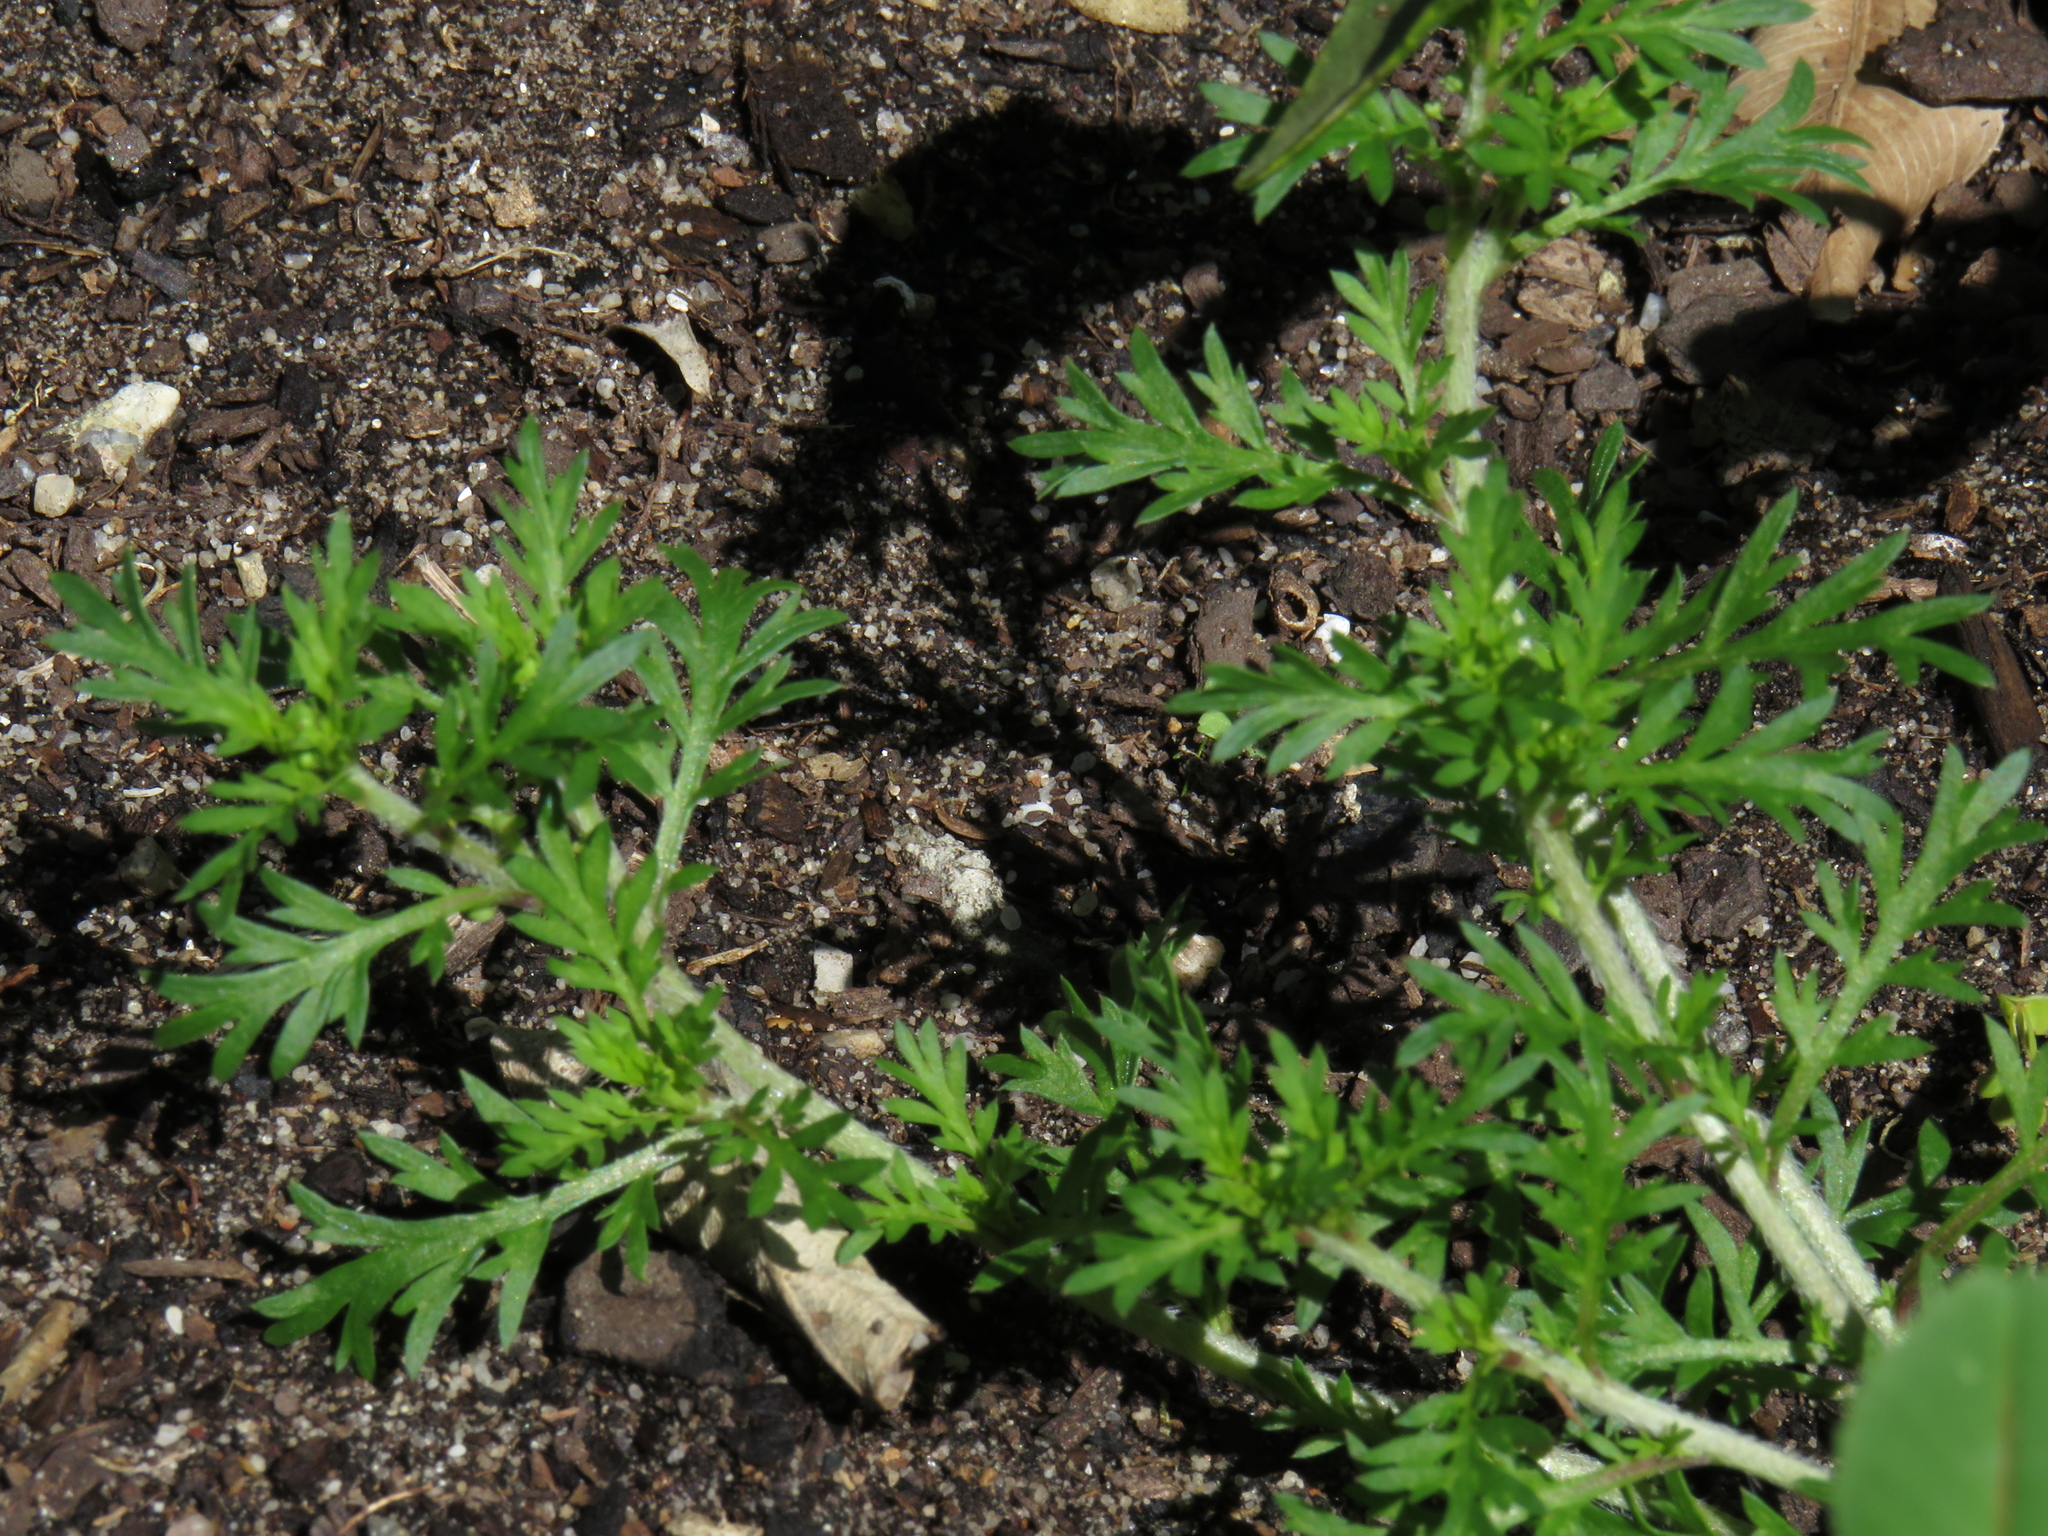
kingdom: Plantae
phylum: Tracheophyta
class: Magnoliopsida
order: Brassicales
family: Brassicaceae
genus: Lepidium
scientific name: Lepidium didymum
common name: Lesser swinecress
